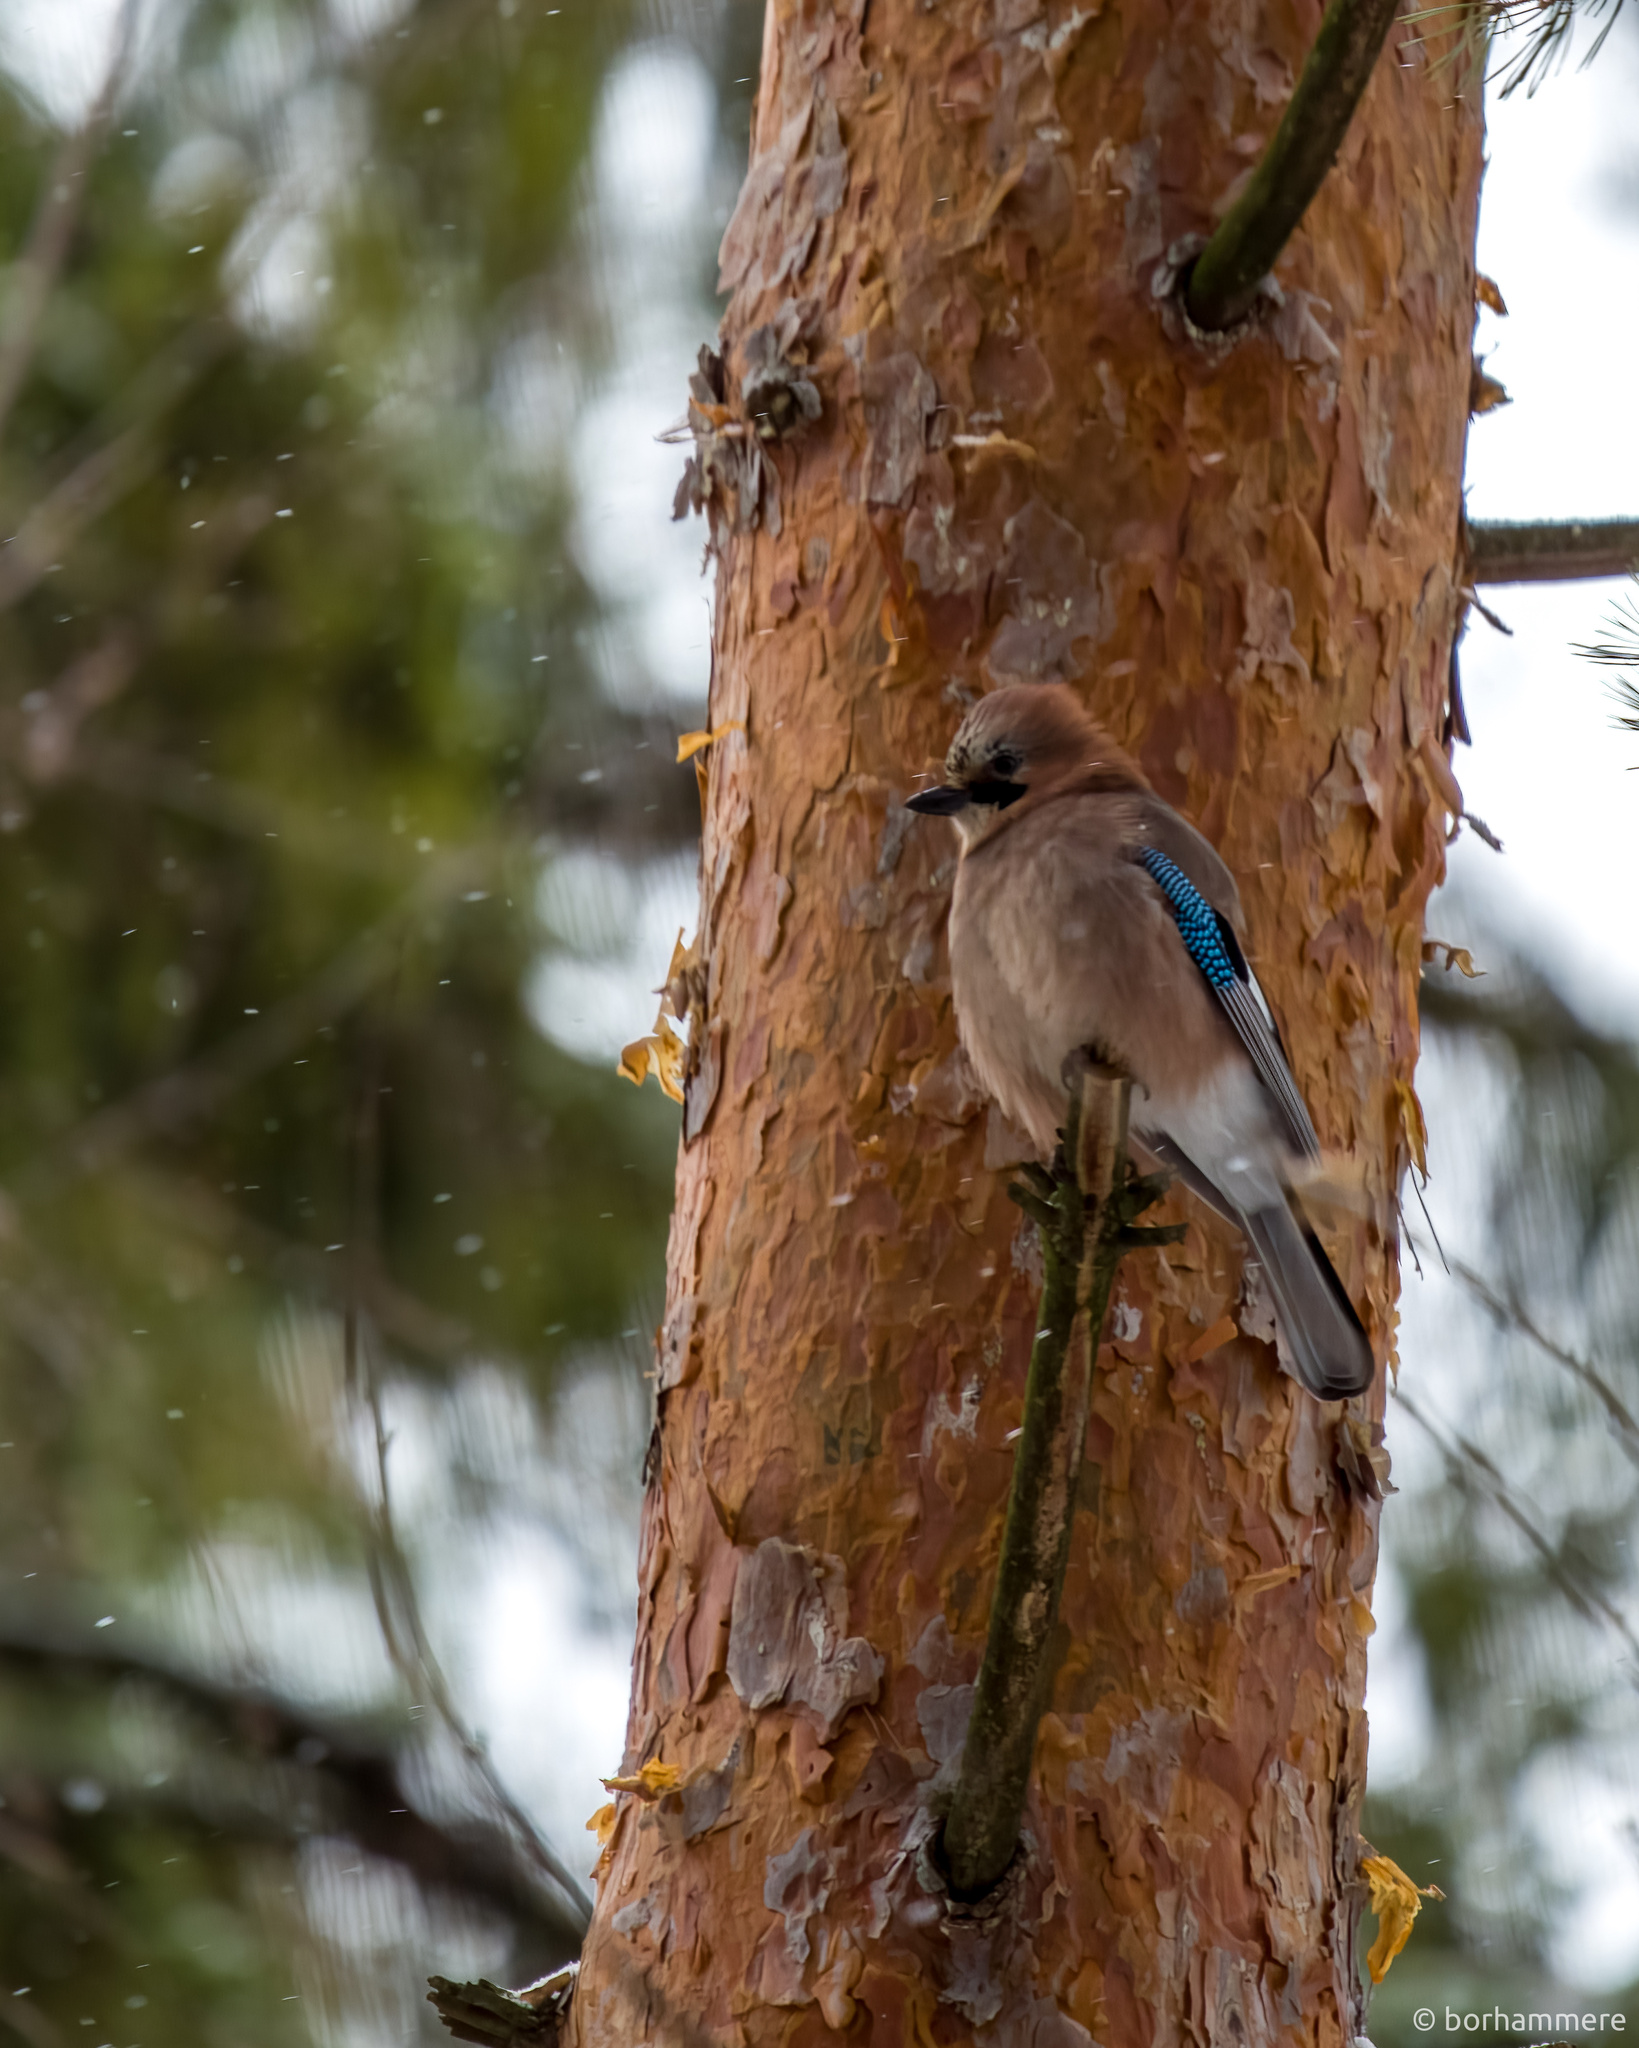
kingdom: Animalia
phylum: Chordata
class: Aves
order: Passeriformes
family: Corvidae
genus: Garrulus
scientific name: Garrulus glandarius
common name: Eurasian jay
